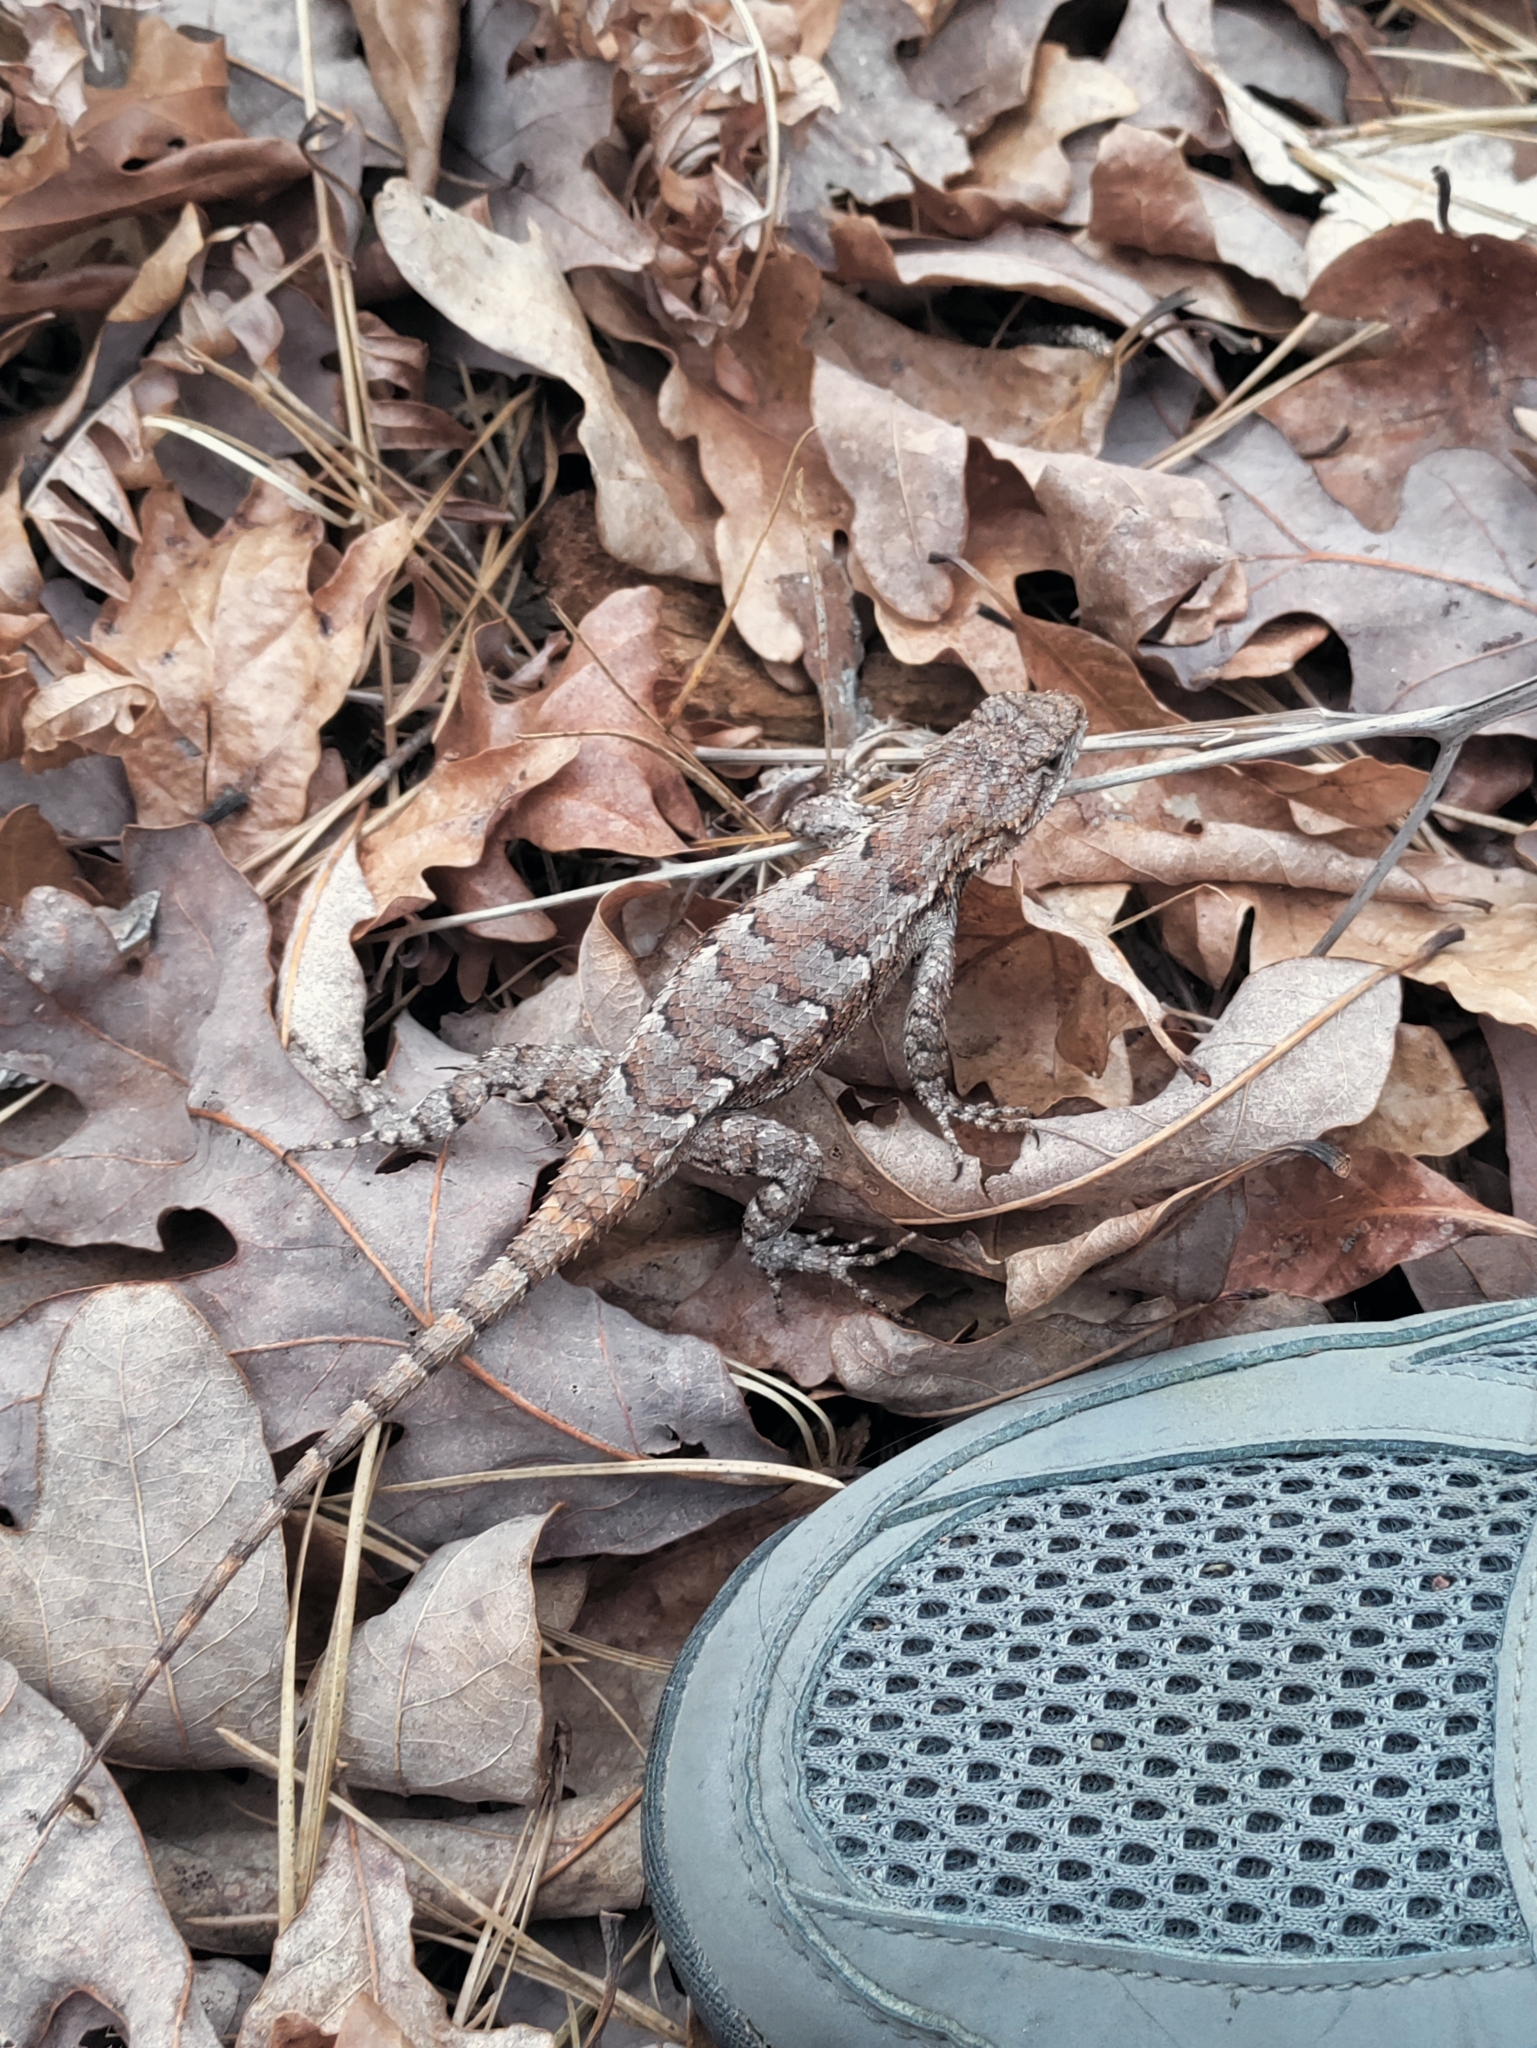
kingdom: Animalia
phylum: Chordata
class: Squamata
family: Phrynosomatidae
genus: Sceloporus
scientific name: Sceloporus undulatus
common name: Eastern fence lizard
